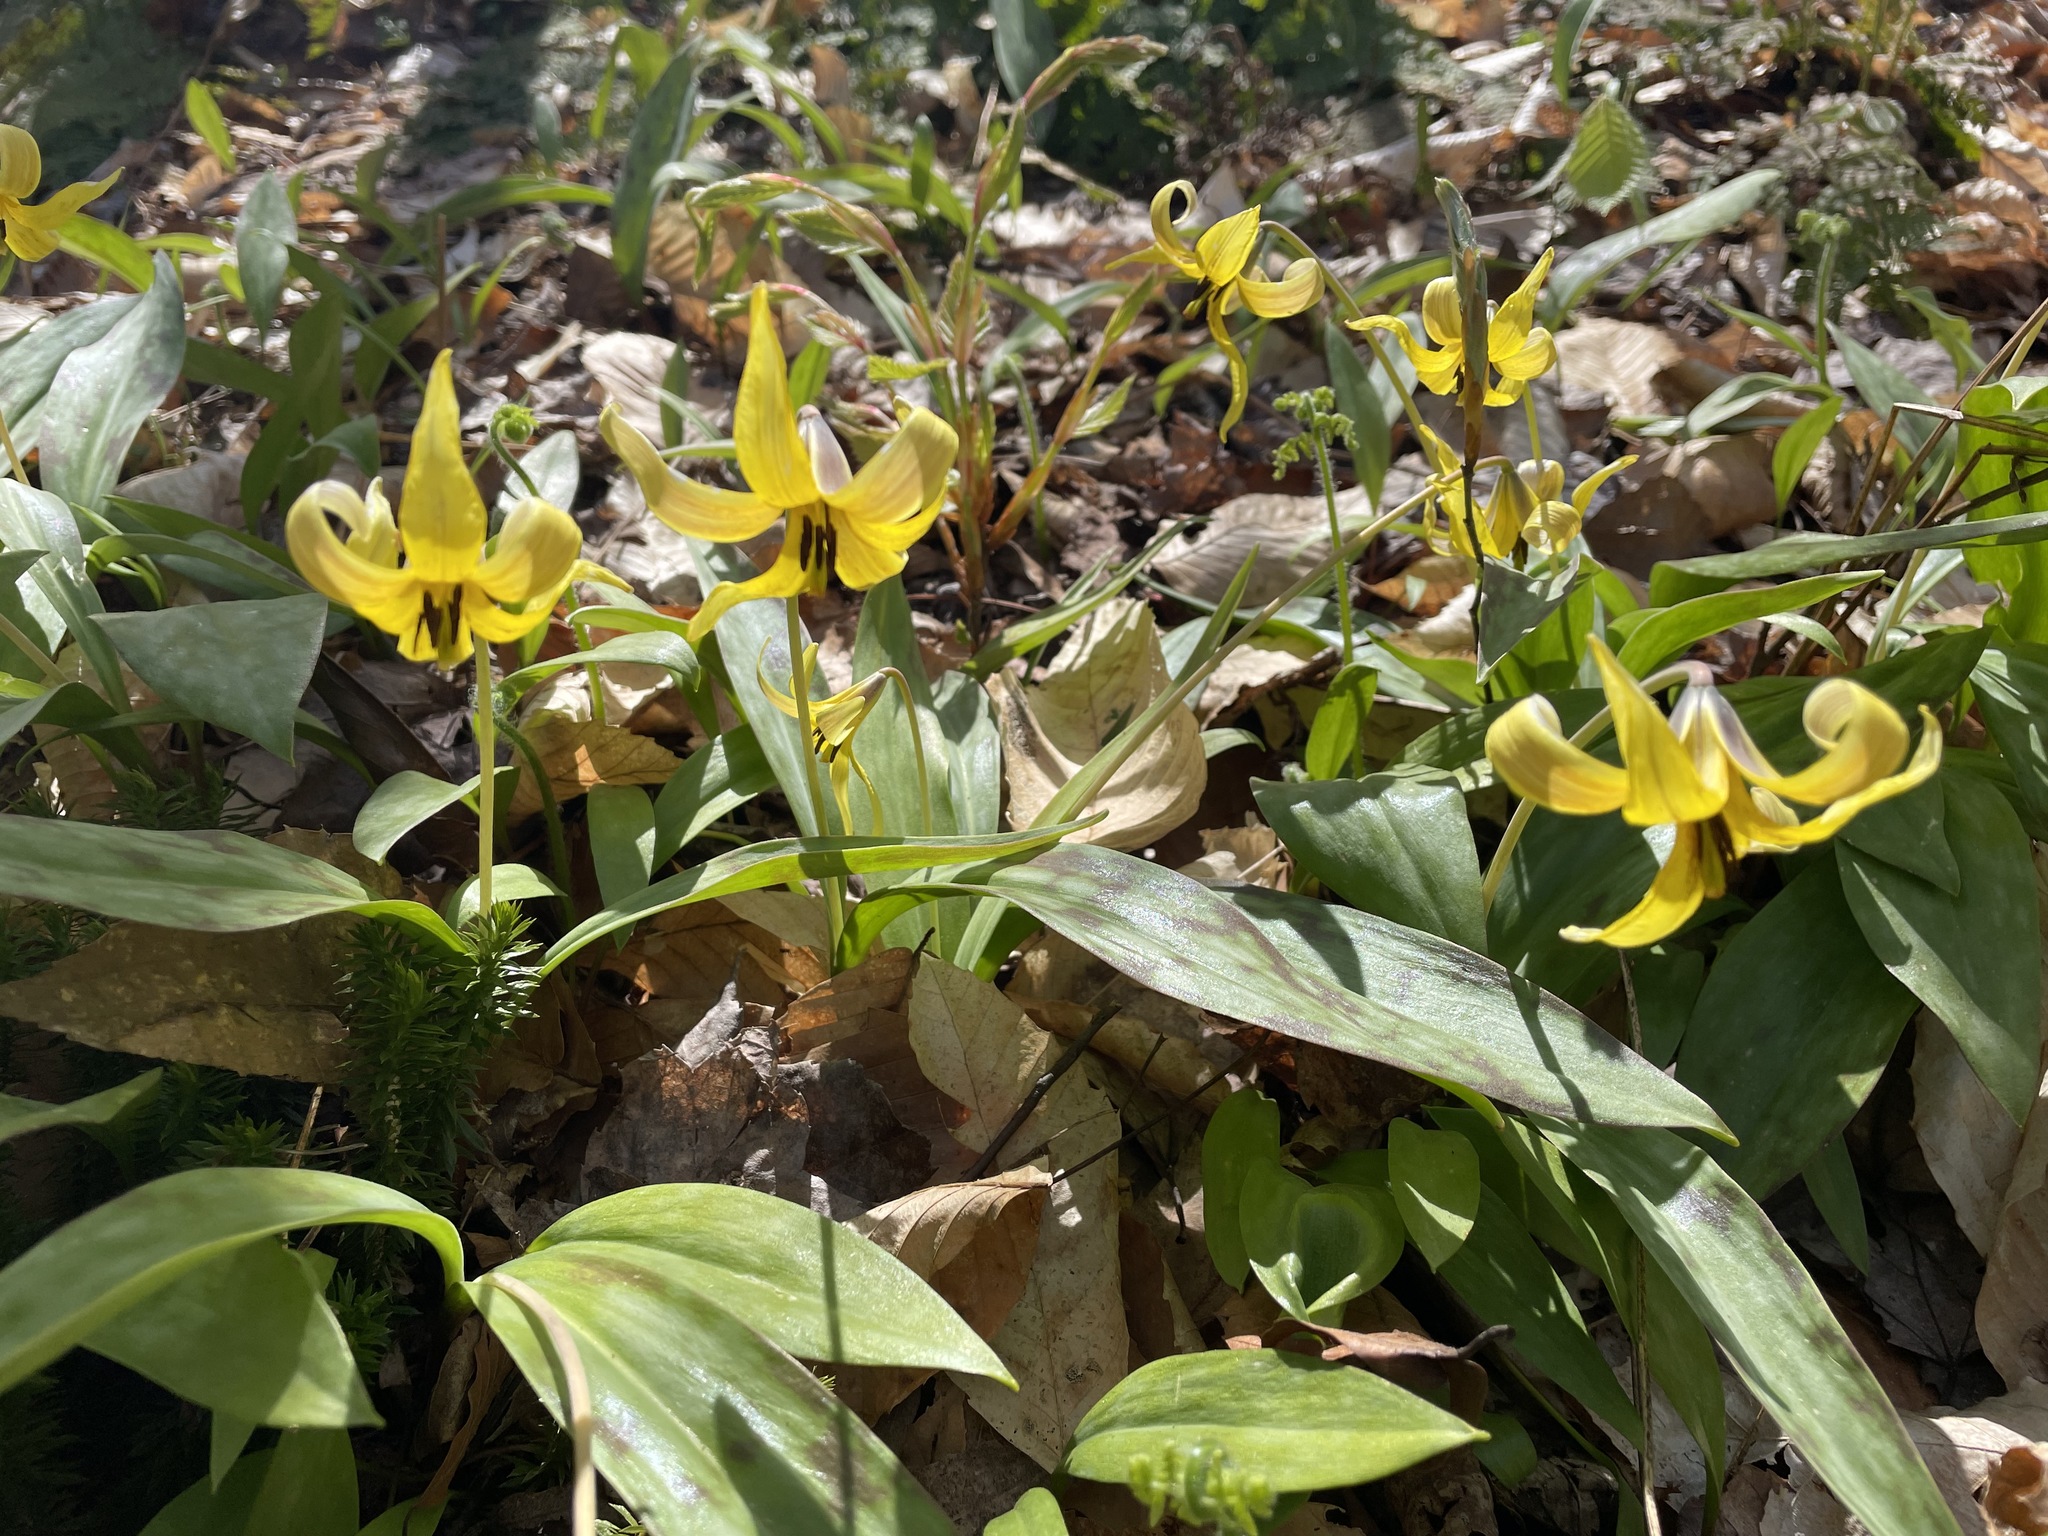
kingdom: Plantae
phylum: Tracheophyta
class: Liliopsida
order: Liliales
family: Liliaceae
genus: Erythronium
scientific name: Erythronium americanum
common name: Yellow adder's-tongue
